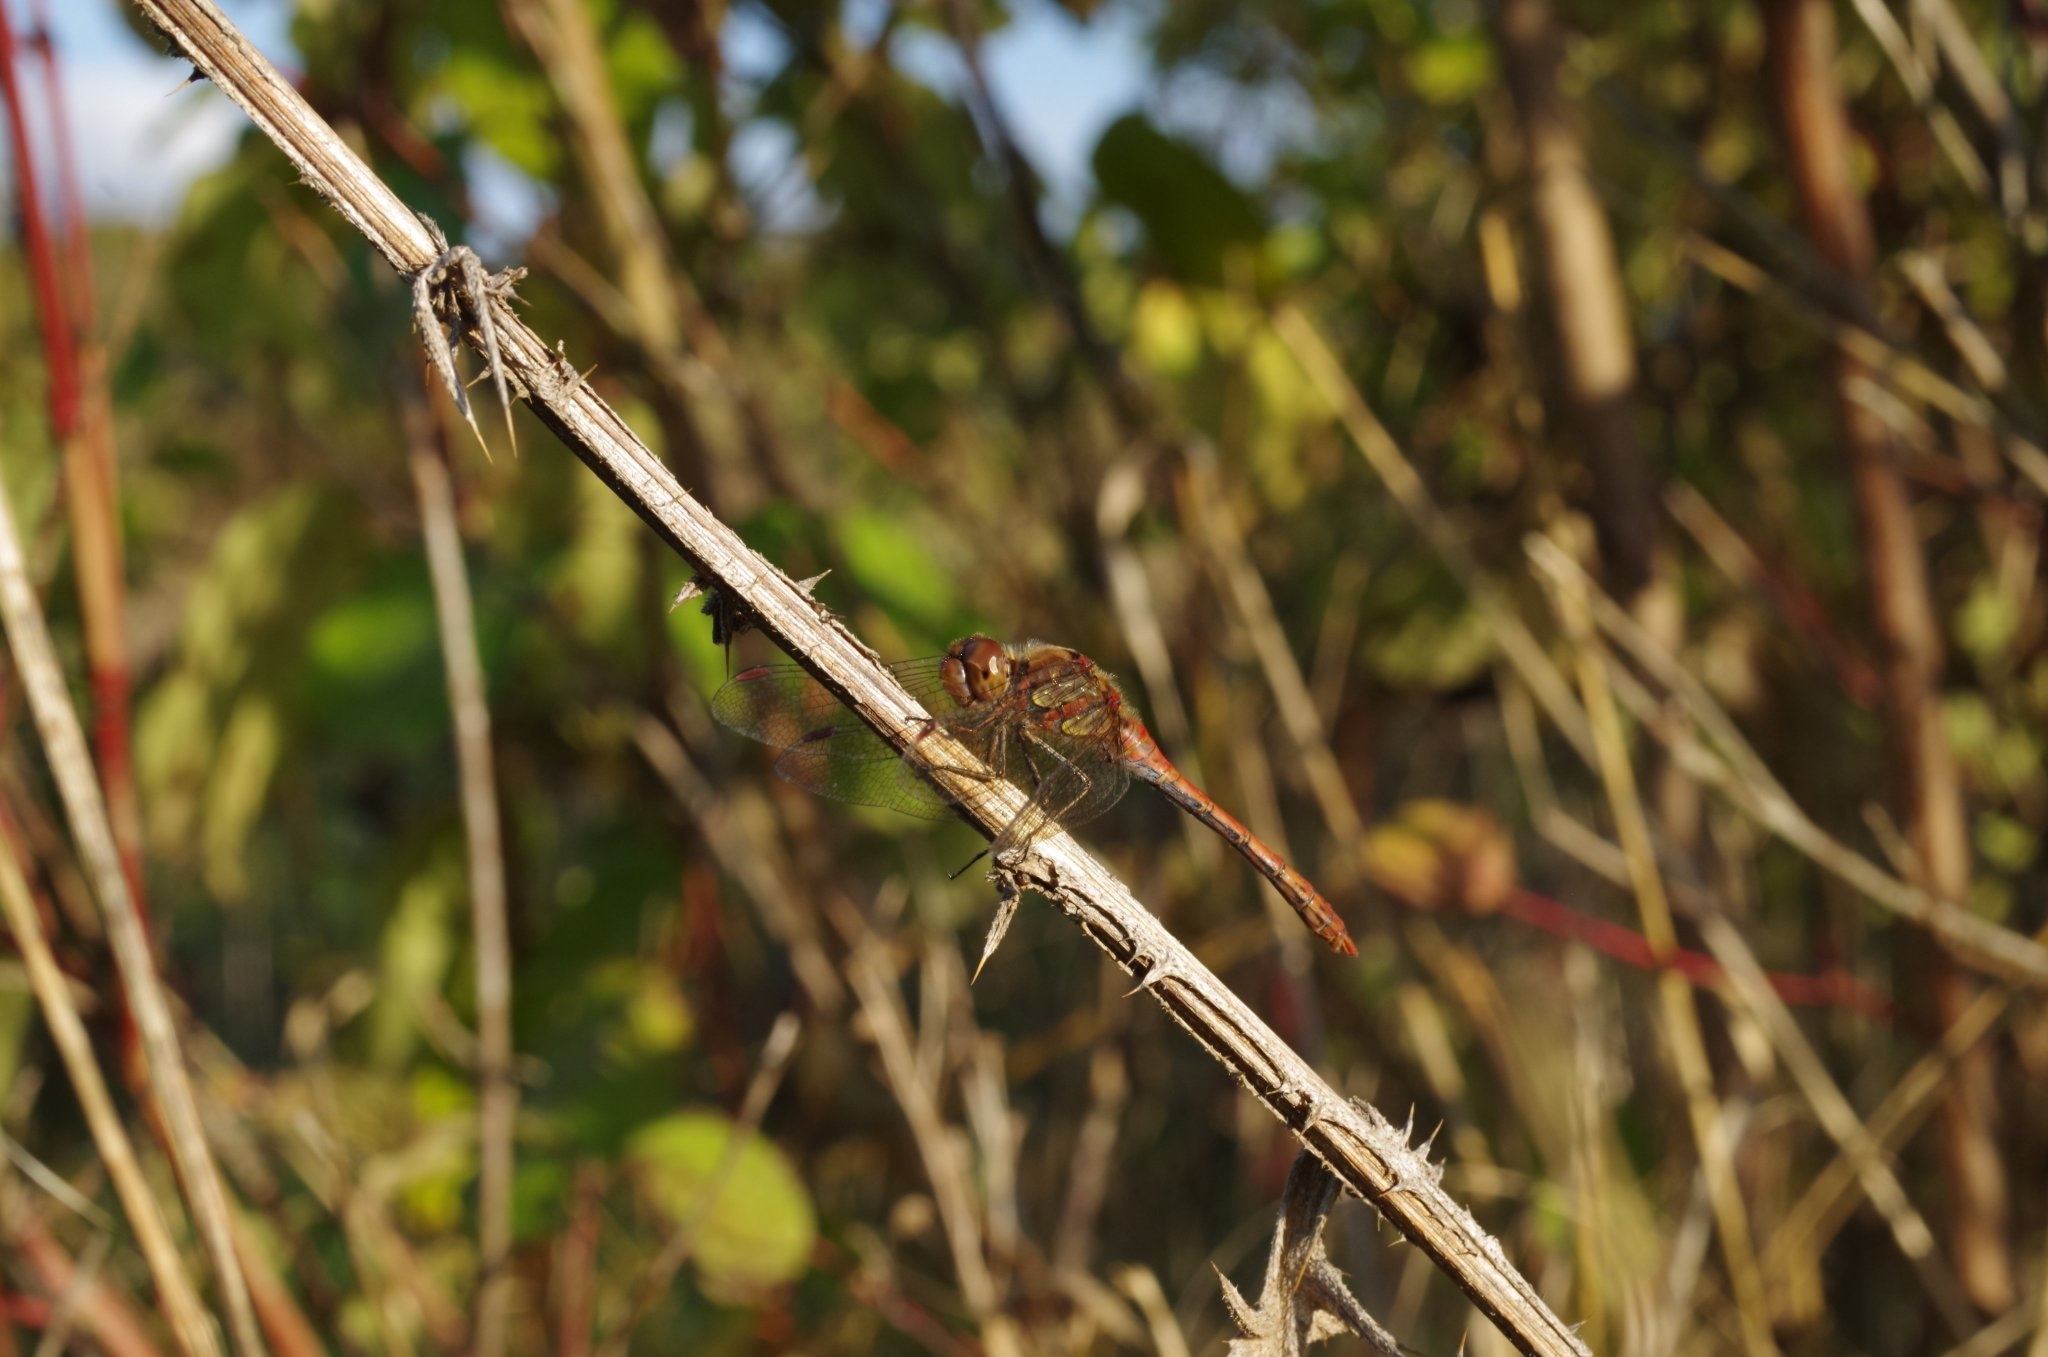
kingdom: Animalia
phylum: Arthropoda
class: Insecta
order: Odonata
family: Libellulidae
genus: Sympetrum
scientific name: Sympetrum striolatum
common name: Common darter
